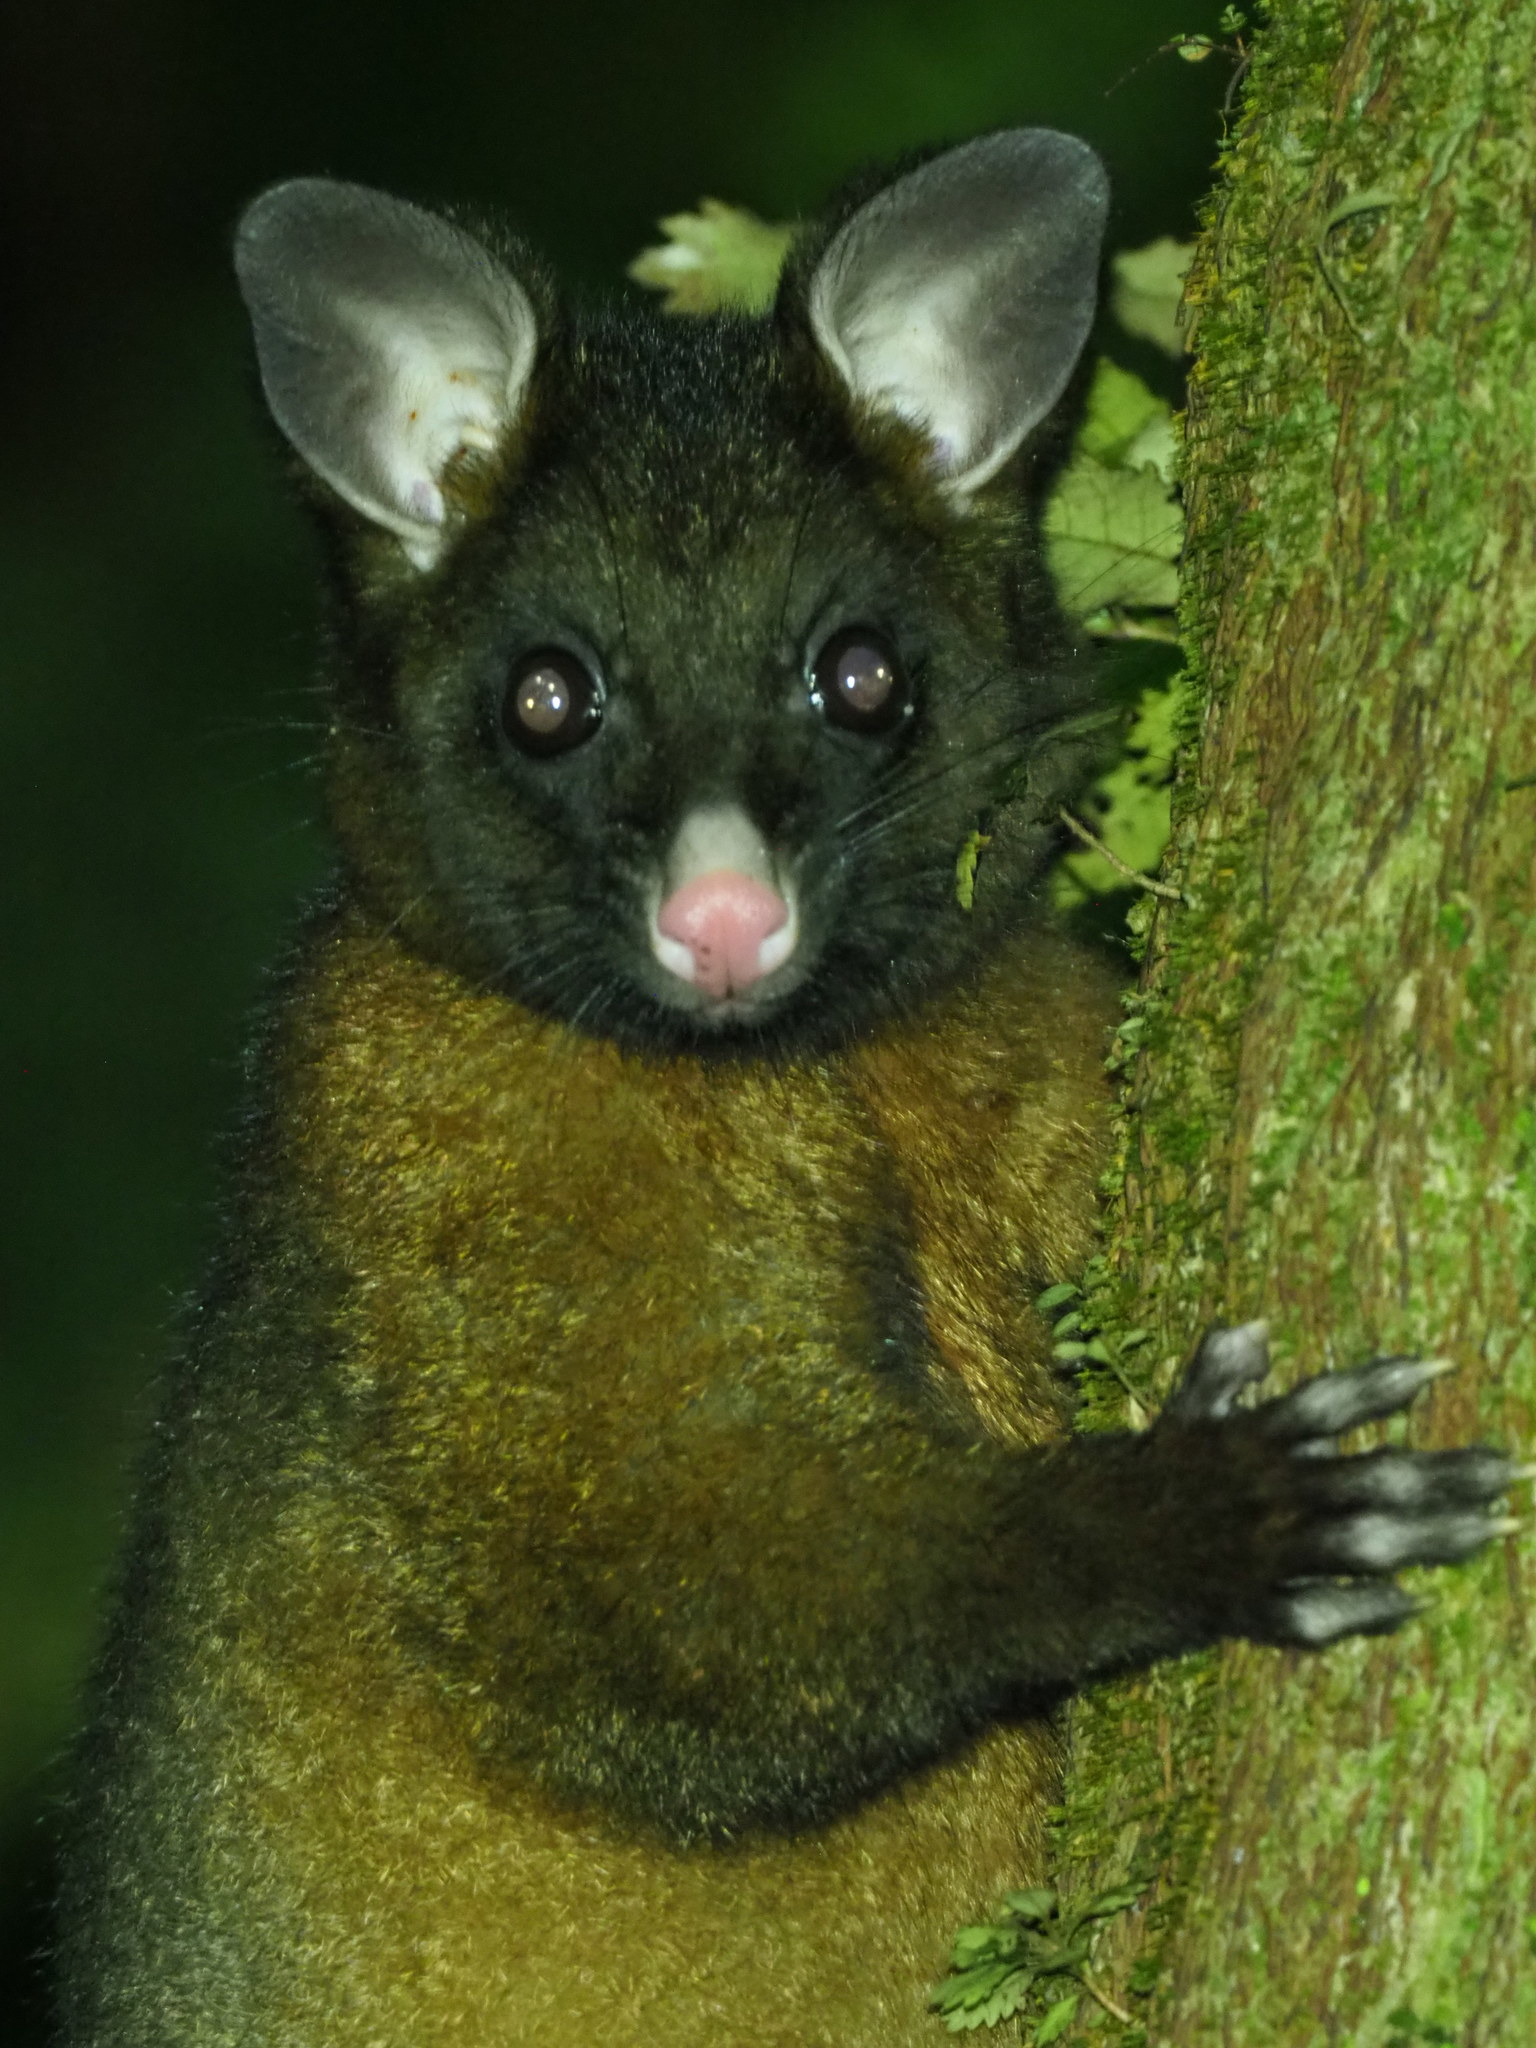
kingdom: Animalia
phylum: Chordata
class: Mammalia
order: Diprotodontia
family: Phalangeridae
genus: Trichosurus
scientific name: Trichosurus vulpecula
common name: Common brushtail
